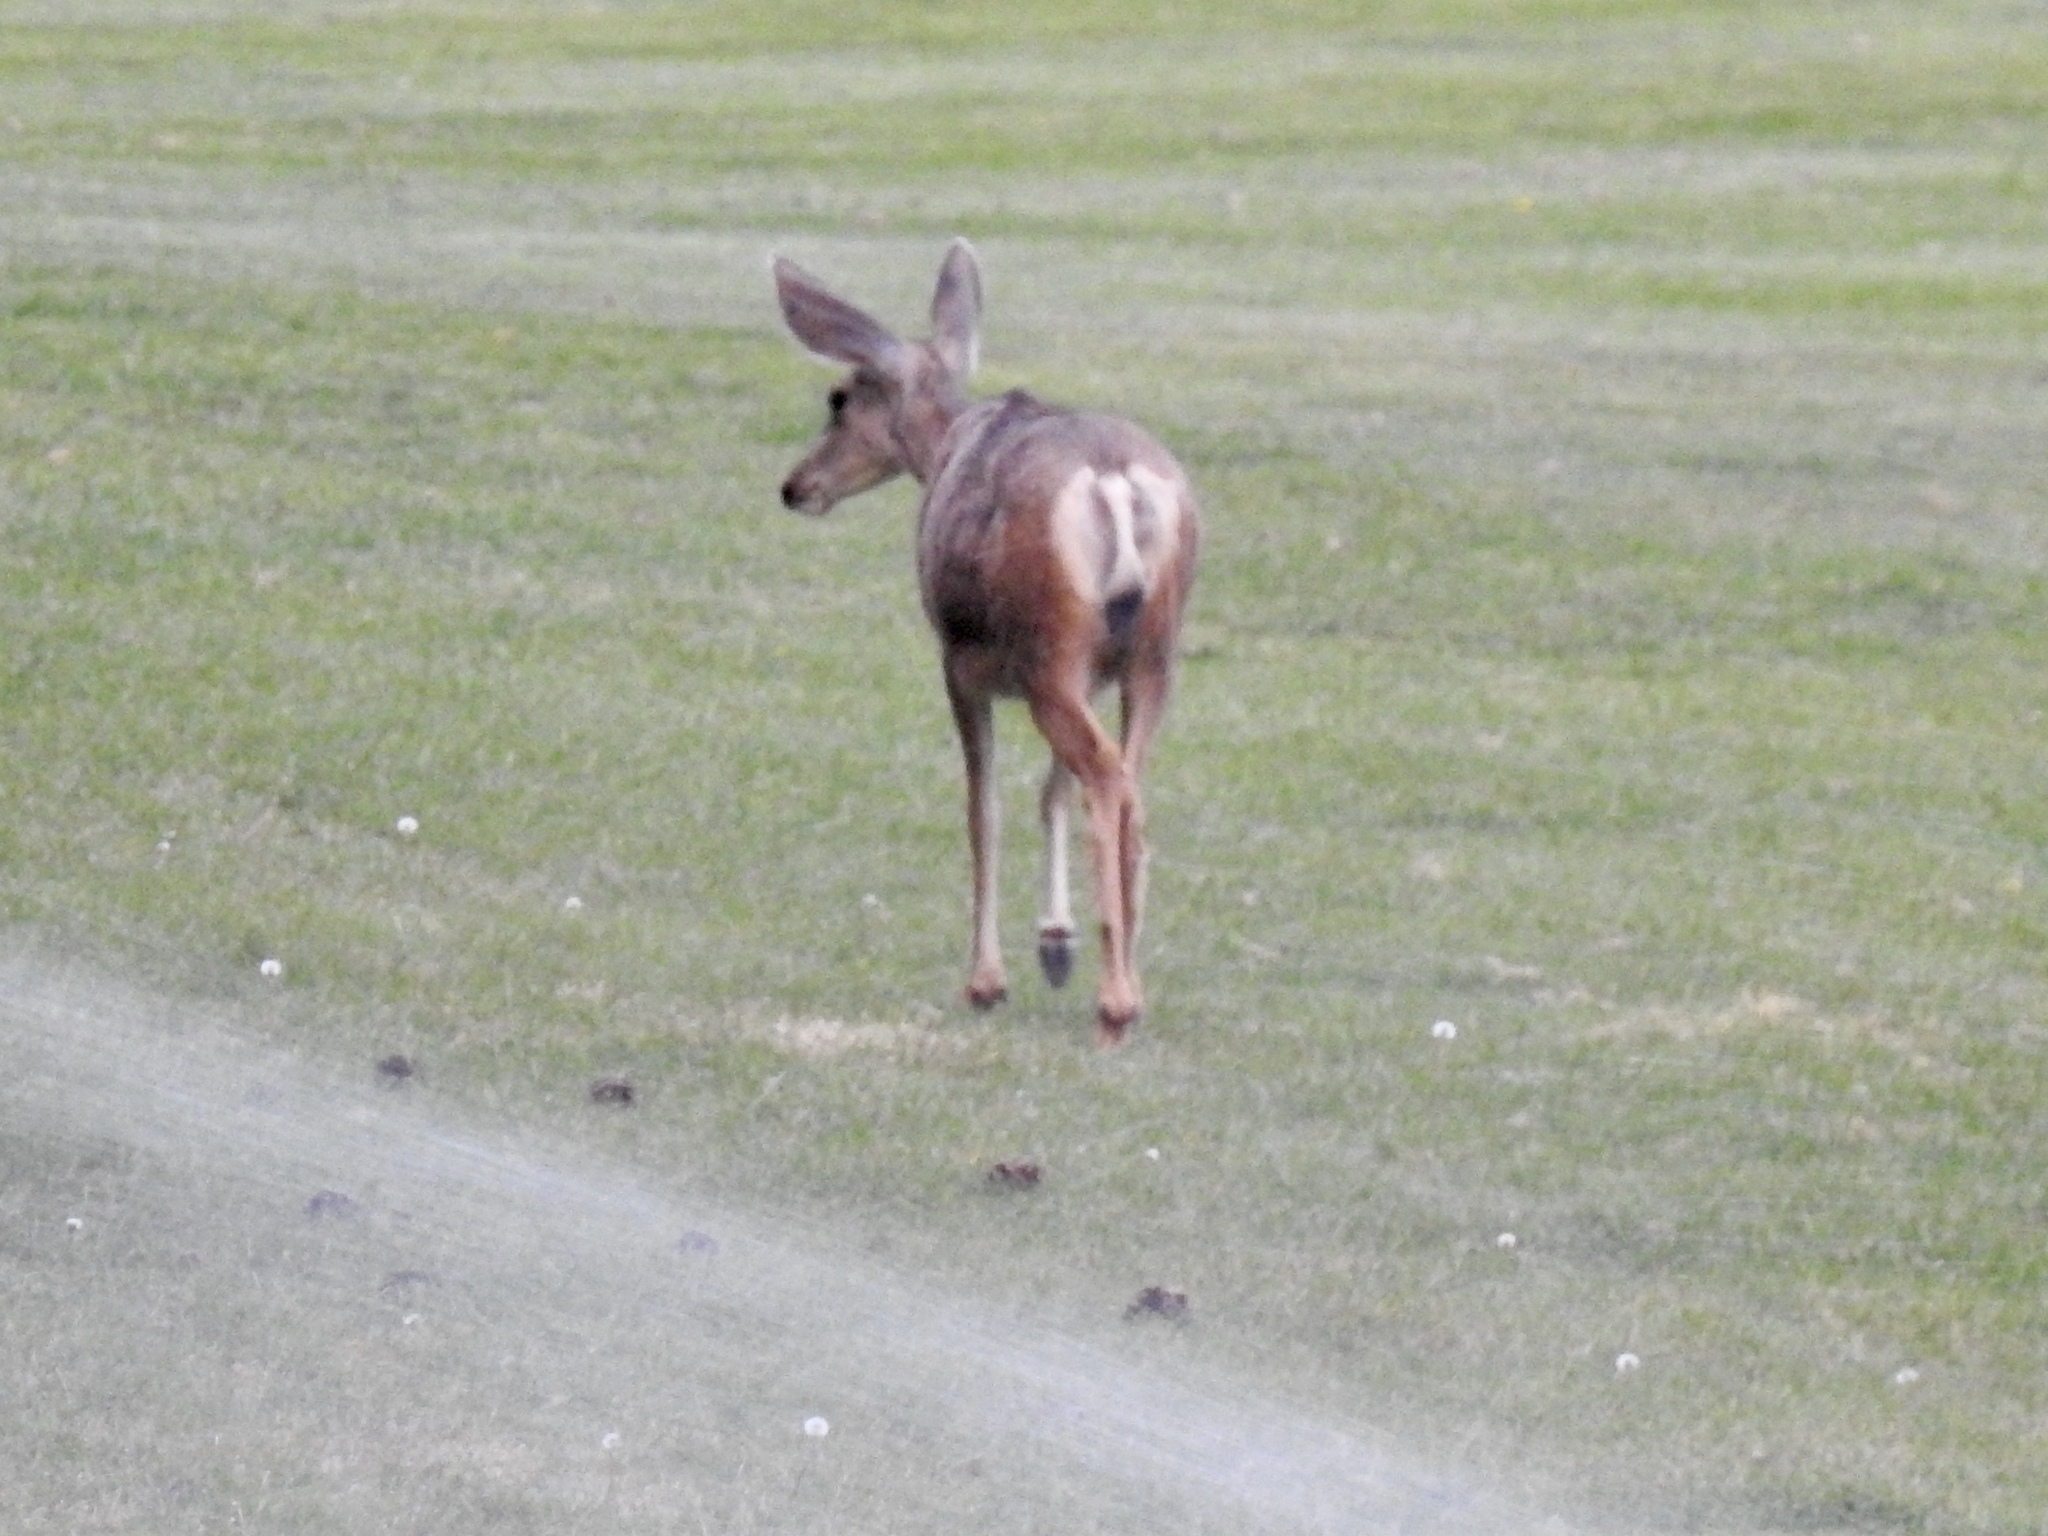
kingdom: Animalia
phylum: Chordata
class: Mammalia
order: Artiodactyla
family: Cervidae
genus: Odocoileus
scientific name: Odocoileus hemionus
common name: Mule deer
